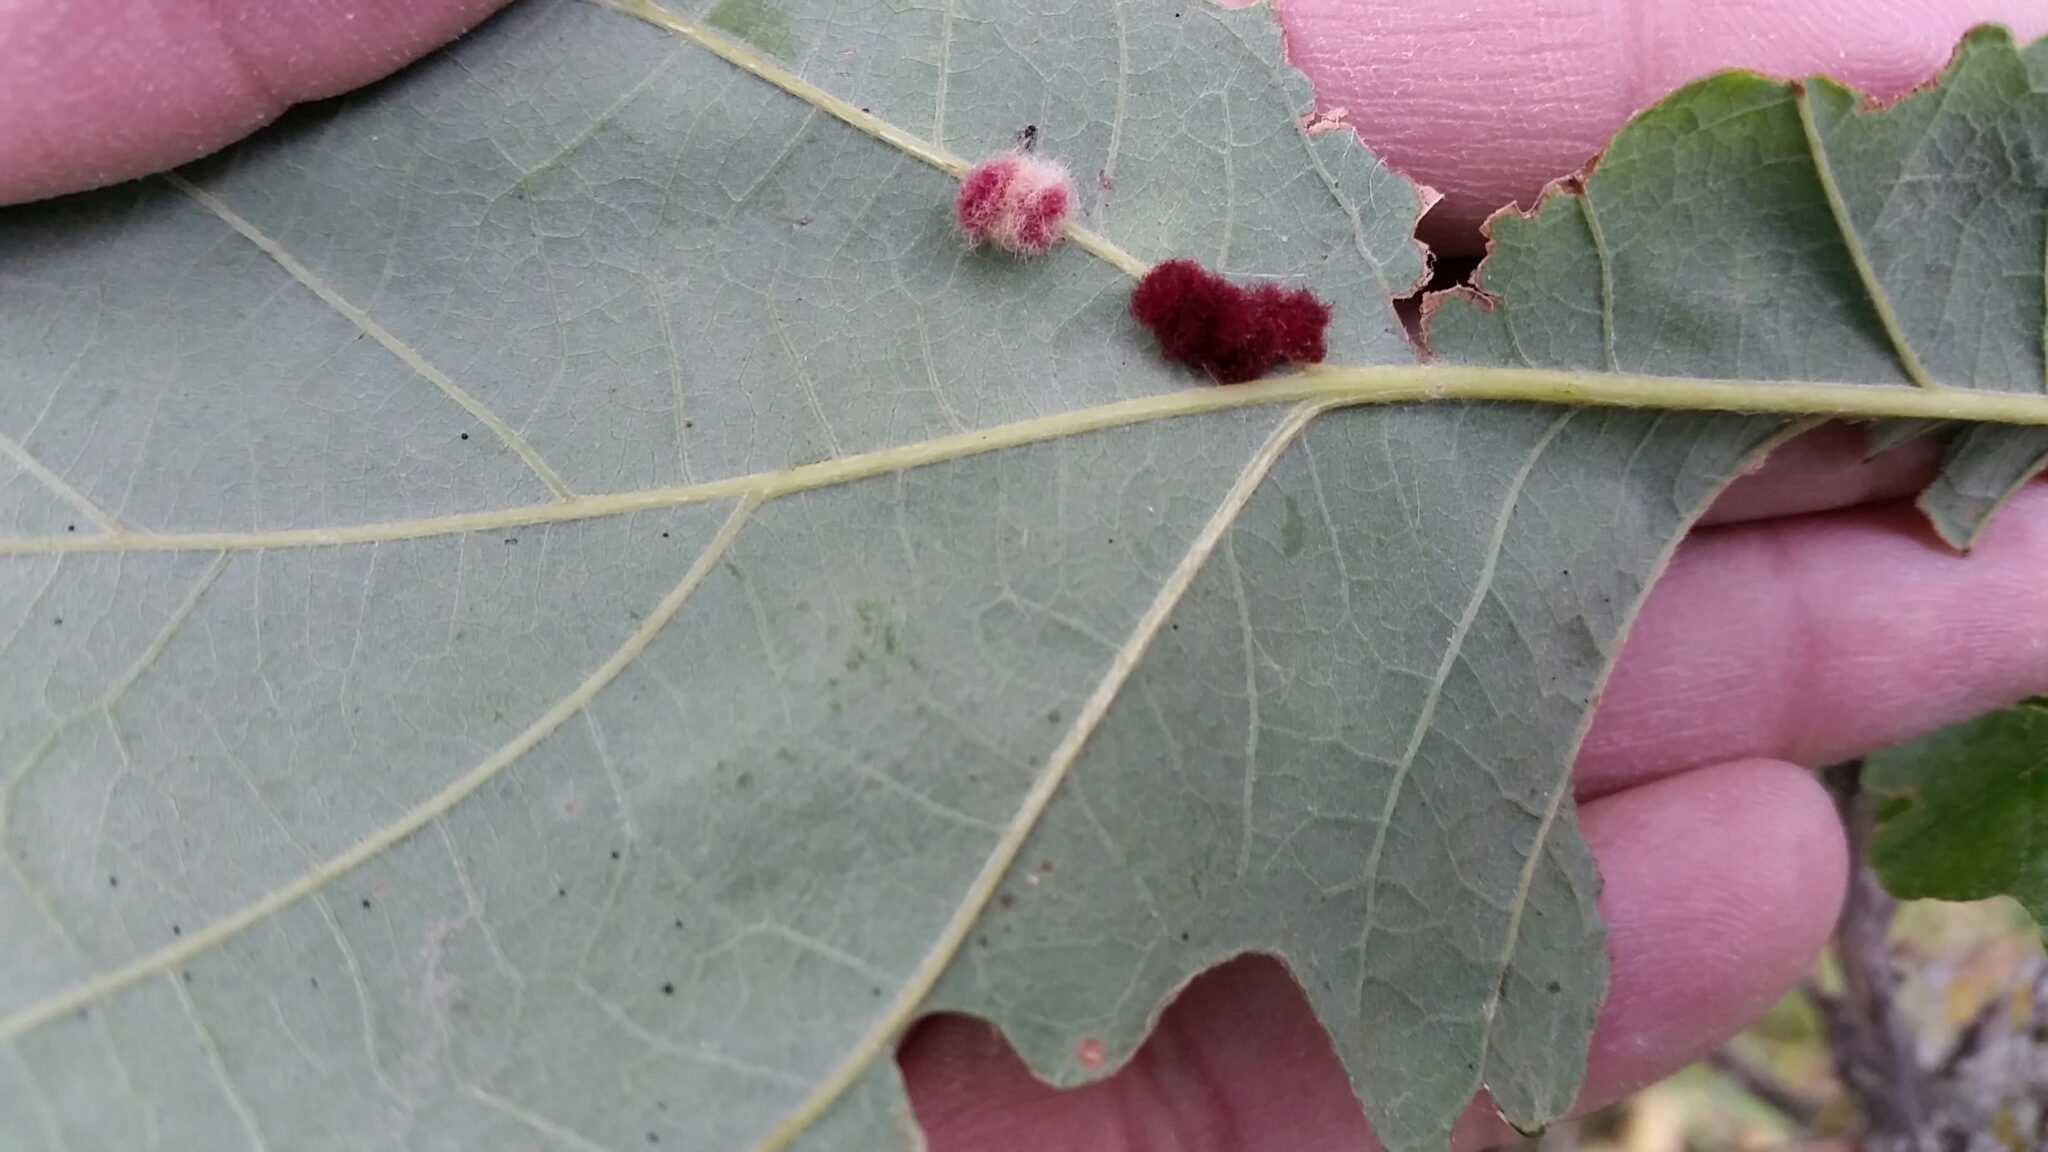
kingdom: Animalia
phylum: Arthropoda
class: Insecta
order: Hymenoptera
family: Cynipidae
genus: Andricus
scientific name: Andricus Druon ignotum
